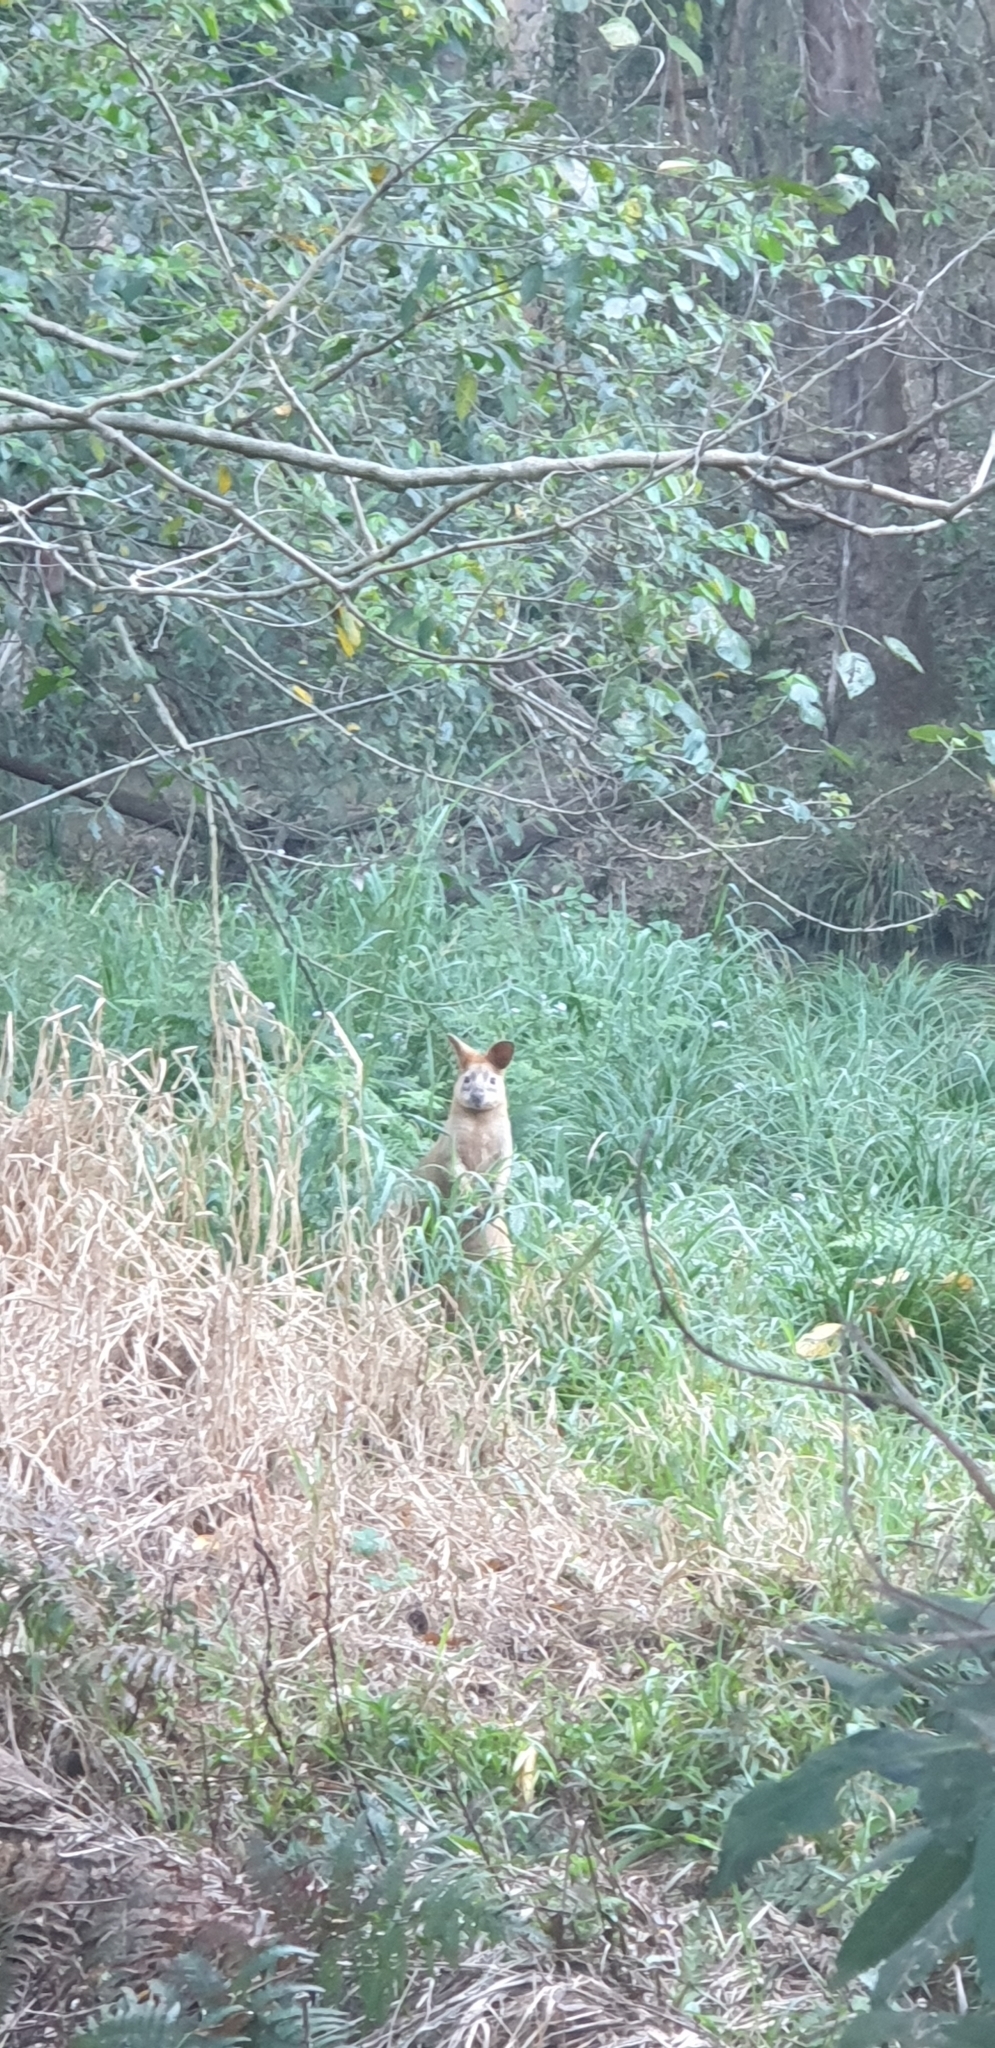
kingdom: Animalia
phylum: Chordata
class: Mammalia
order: Diprotodontia
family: Macropodidae
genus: Wallabia
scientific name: Wallabia bicolor
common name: Swamp wallaby
